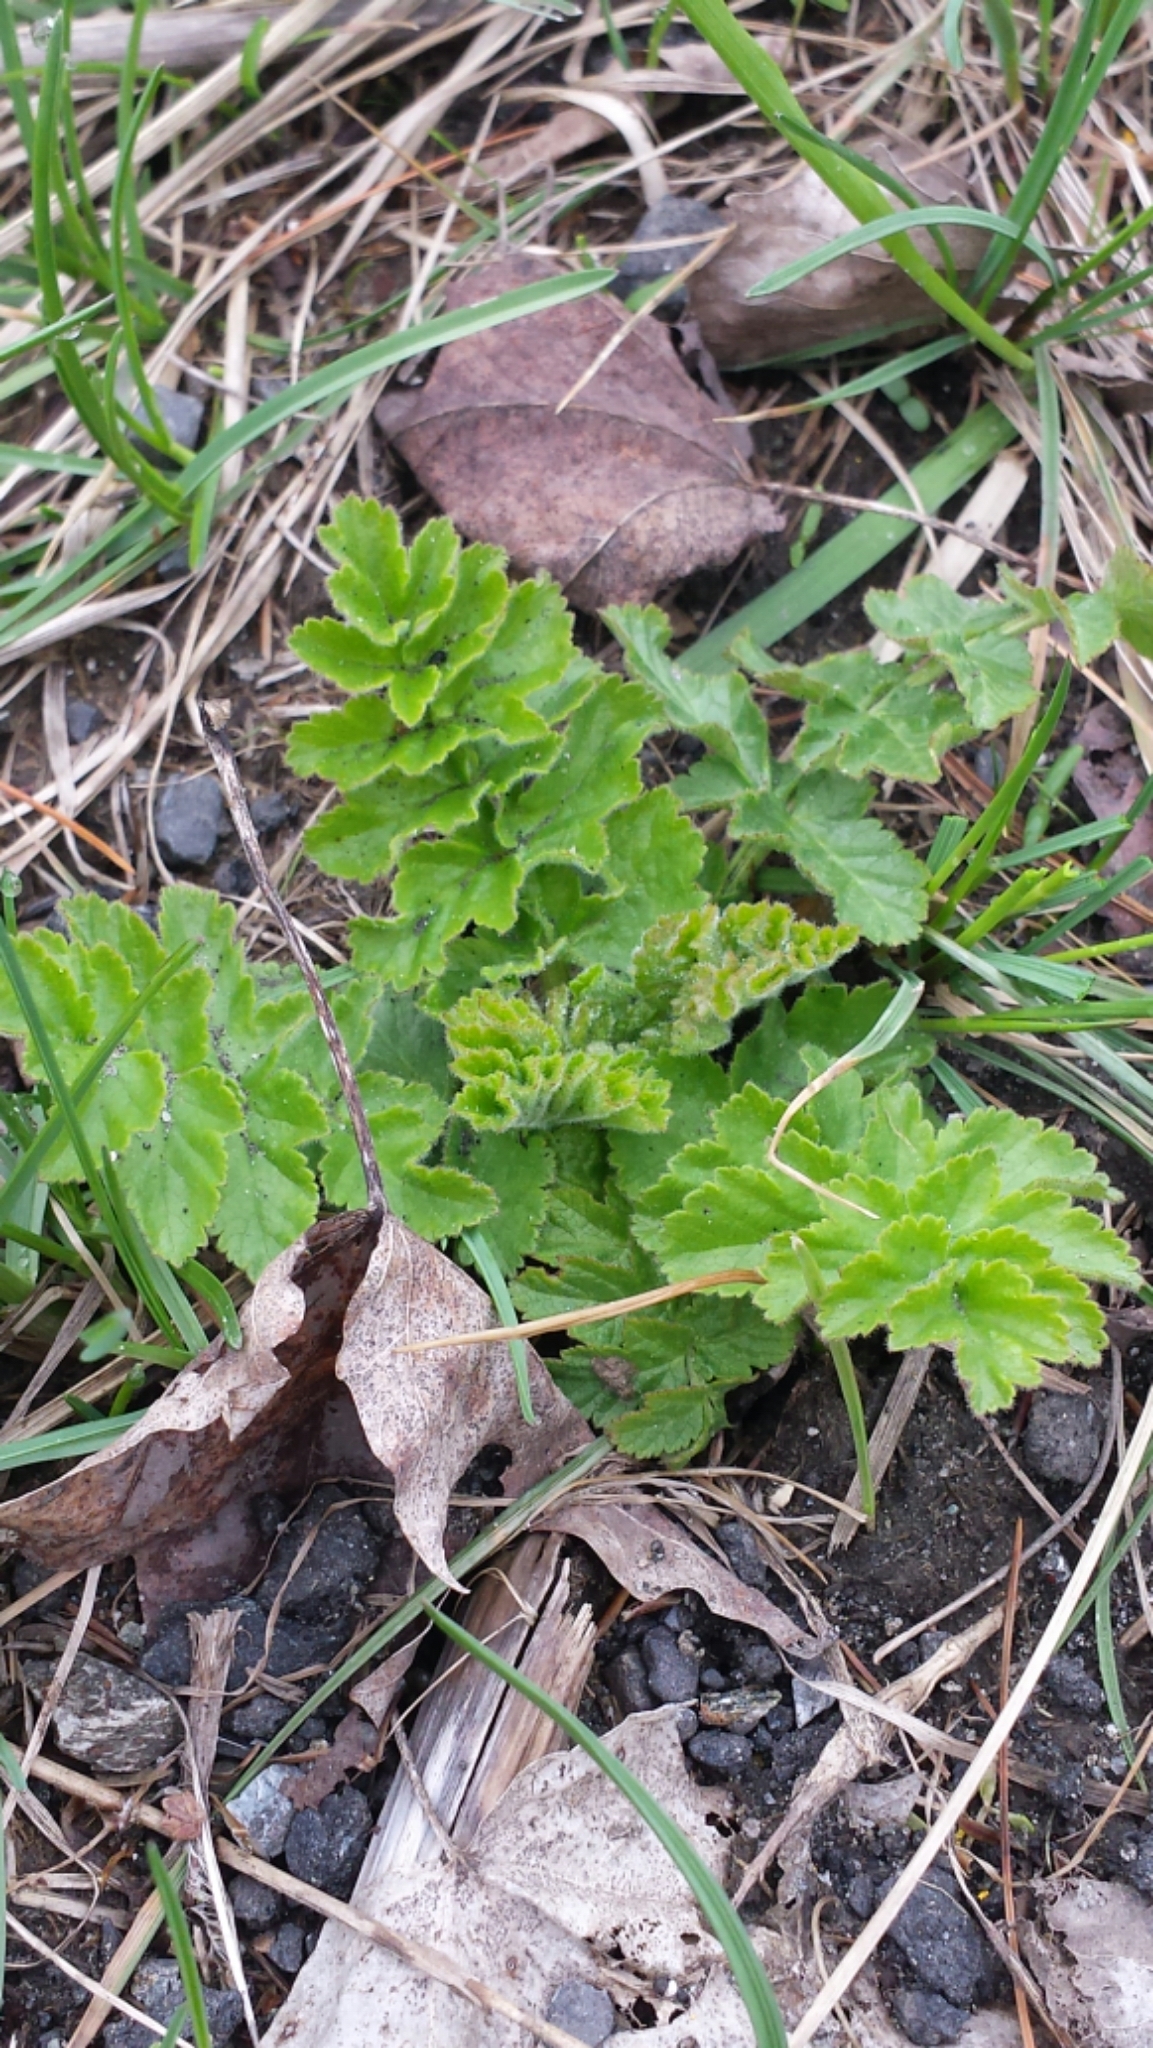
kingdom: Plantae
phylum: Tracheophyta
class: Magnoliopsida
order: Apiales
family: Apiaceae
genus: Pastinaca
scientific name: Pastinaca sativa
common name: Wild parsnip
